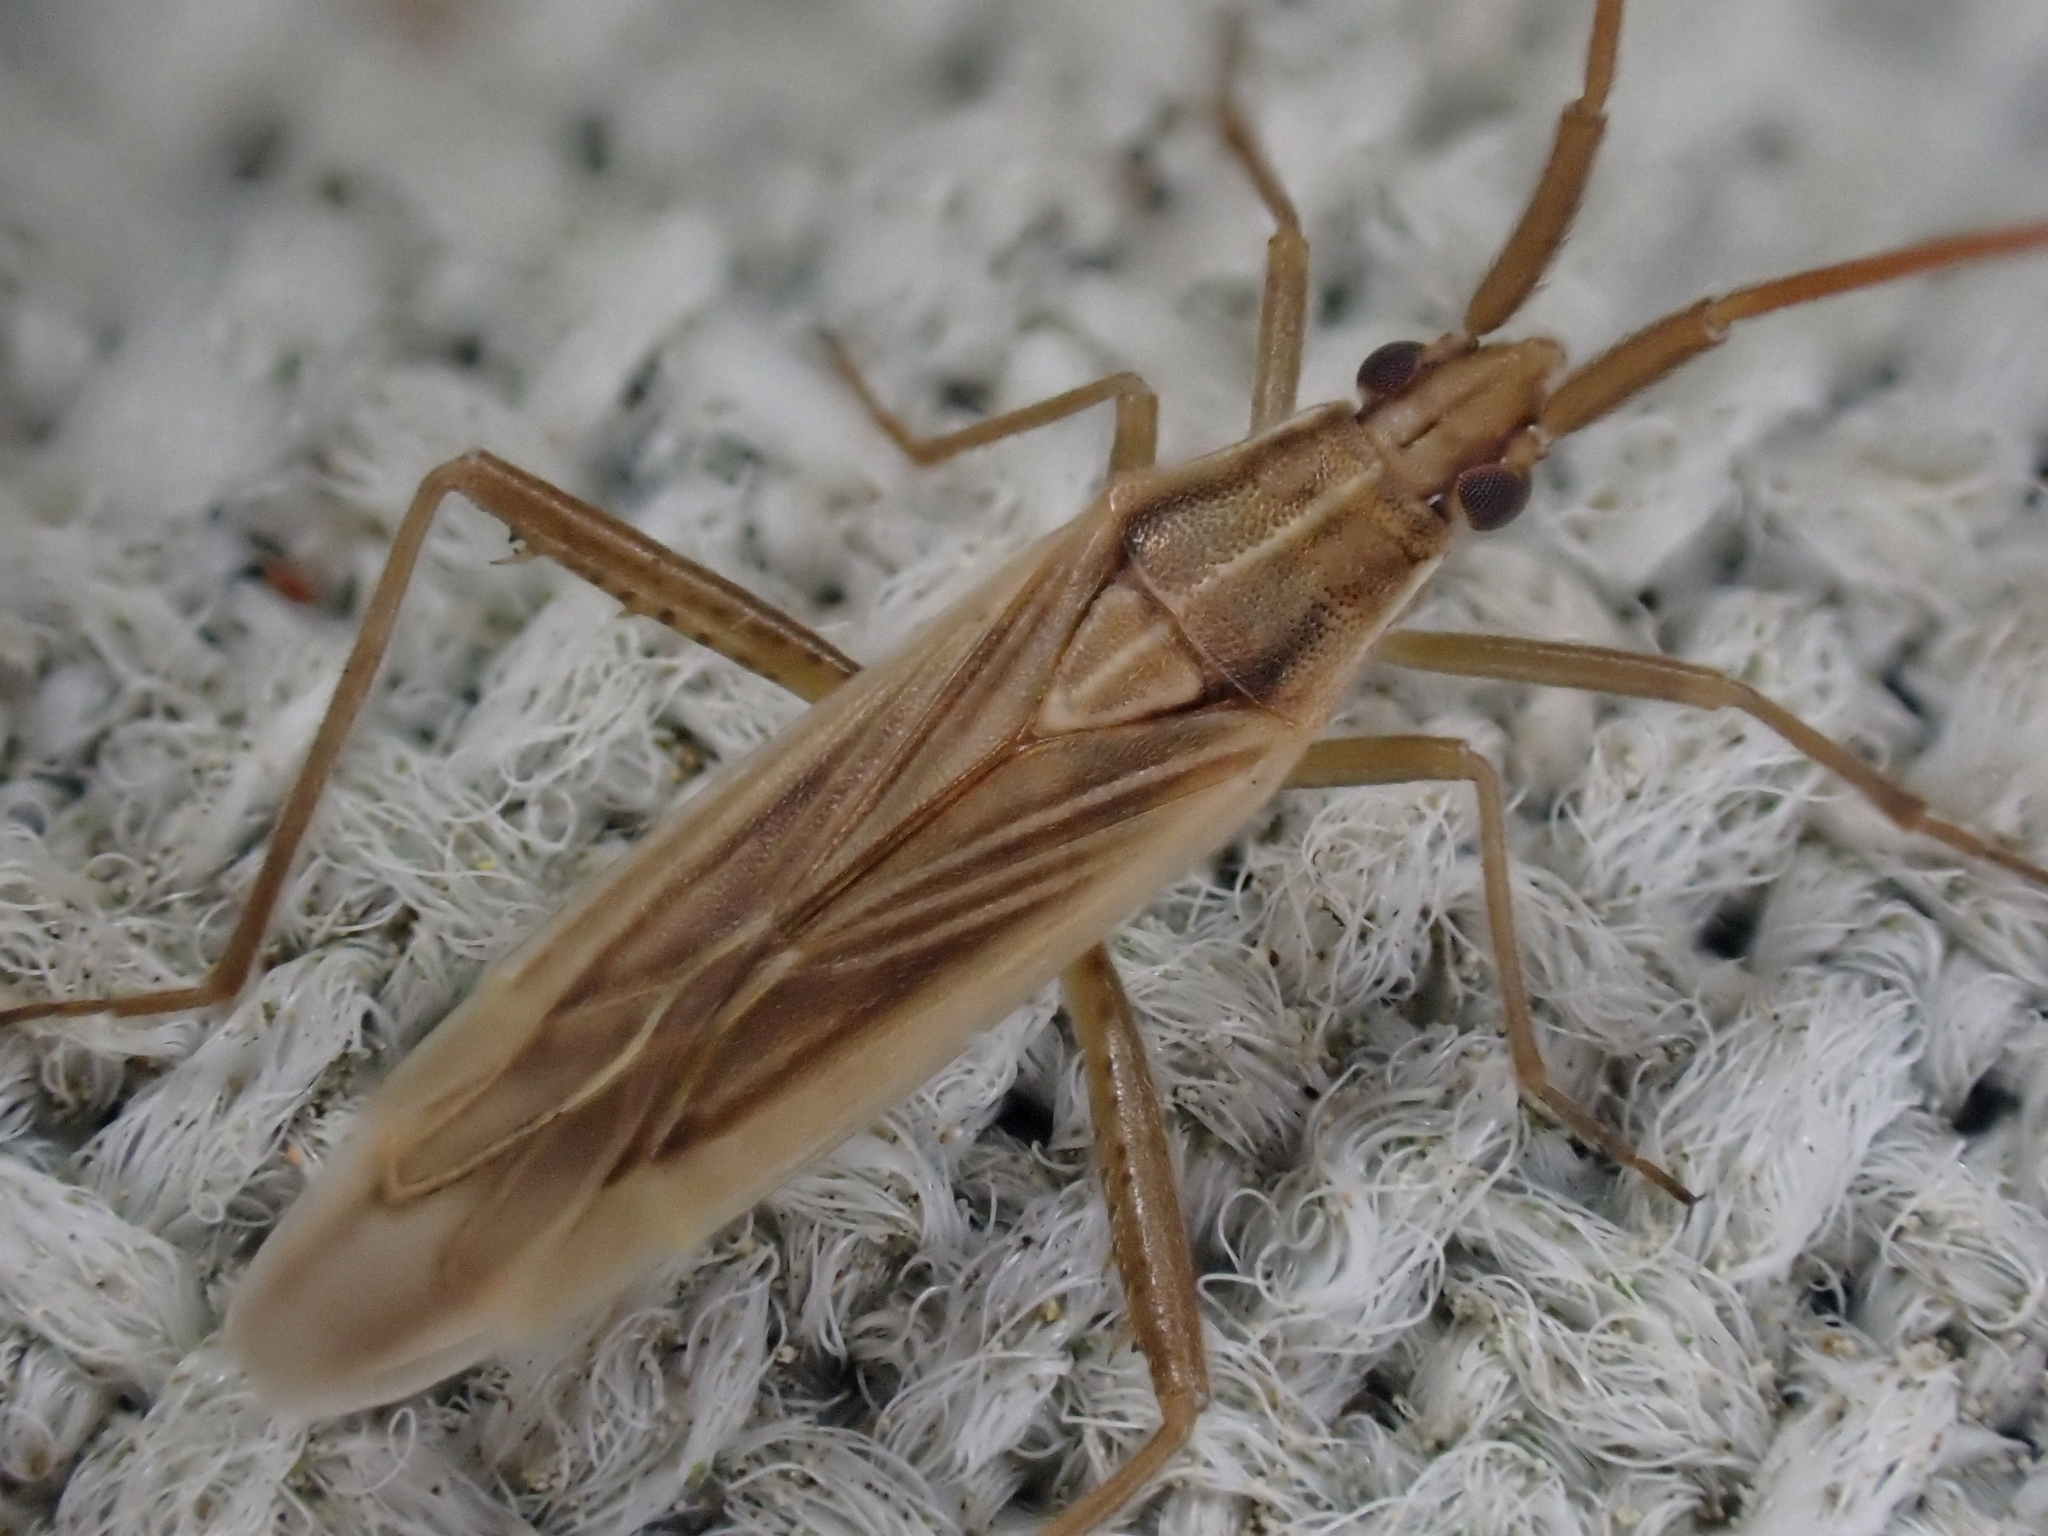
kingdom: Animalia
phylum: Arthropoda
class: Insecta
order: Hemiptera
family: Miridae
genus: Stenodema
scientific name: Stenodema trispinosa
